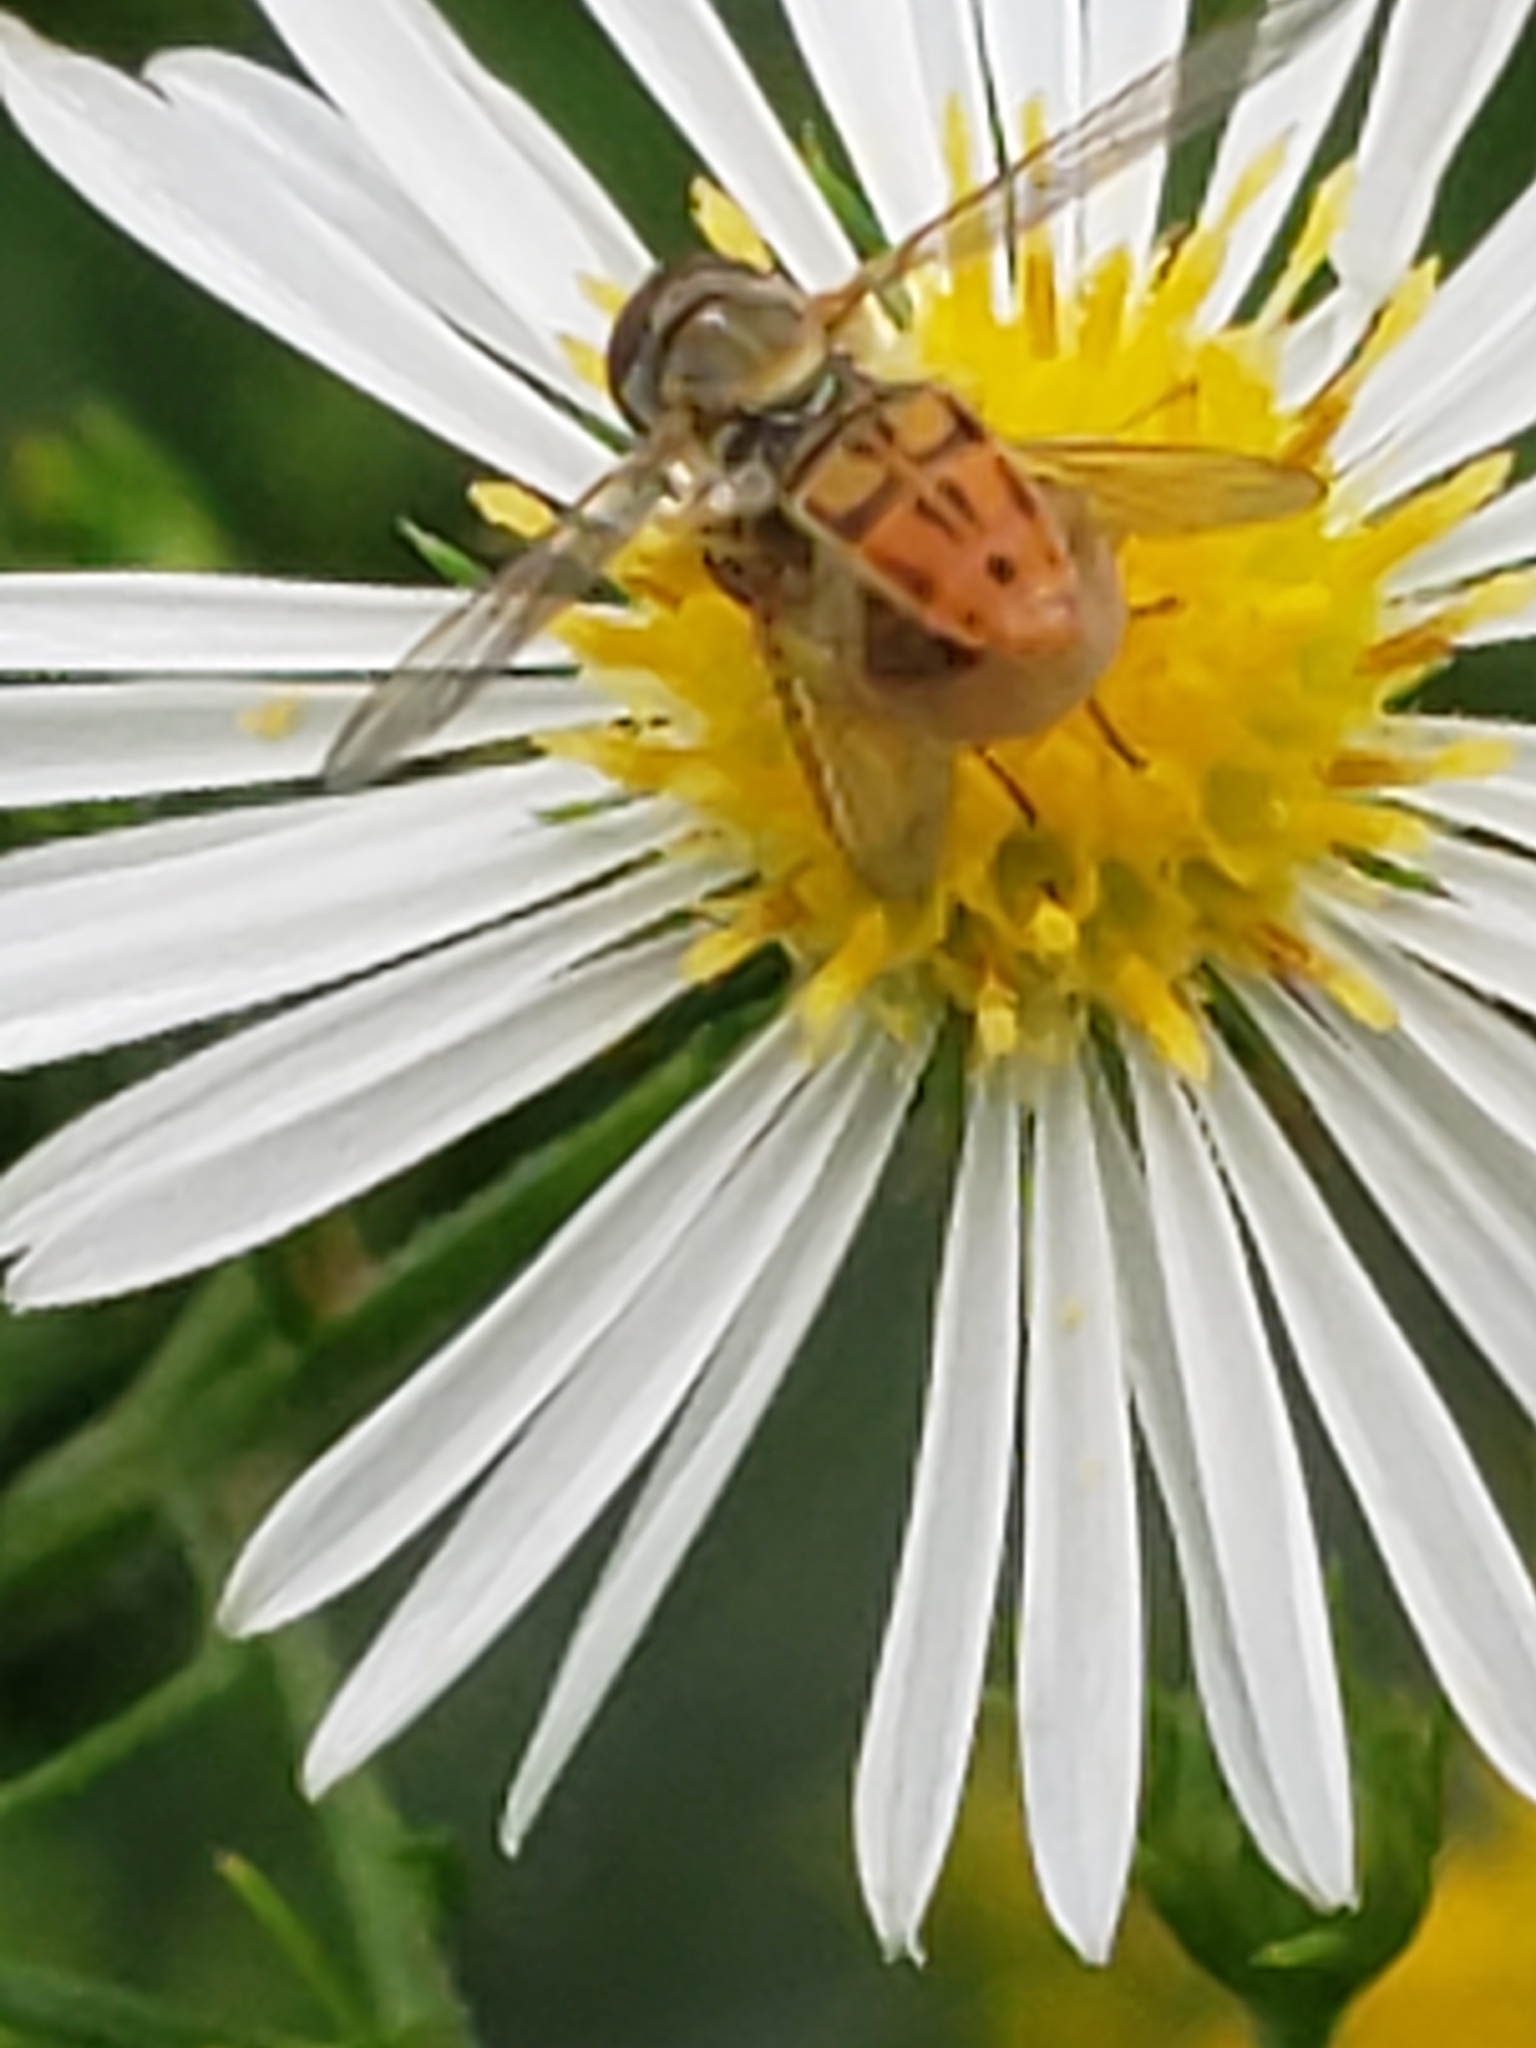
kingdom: Animalia
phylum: Arthropoda
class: Insecta
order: Diptera
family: Syrphidae
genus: Toxomerus
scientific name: Toxomerus marginatus
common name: Syrphid fly
